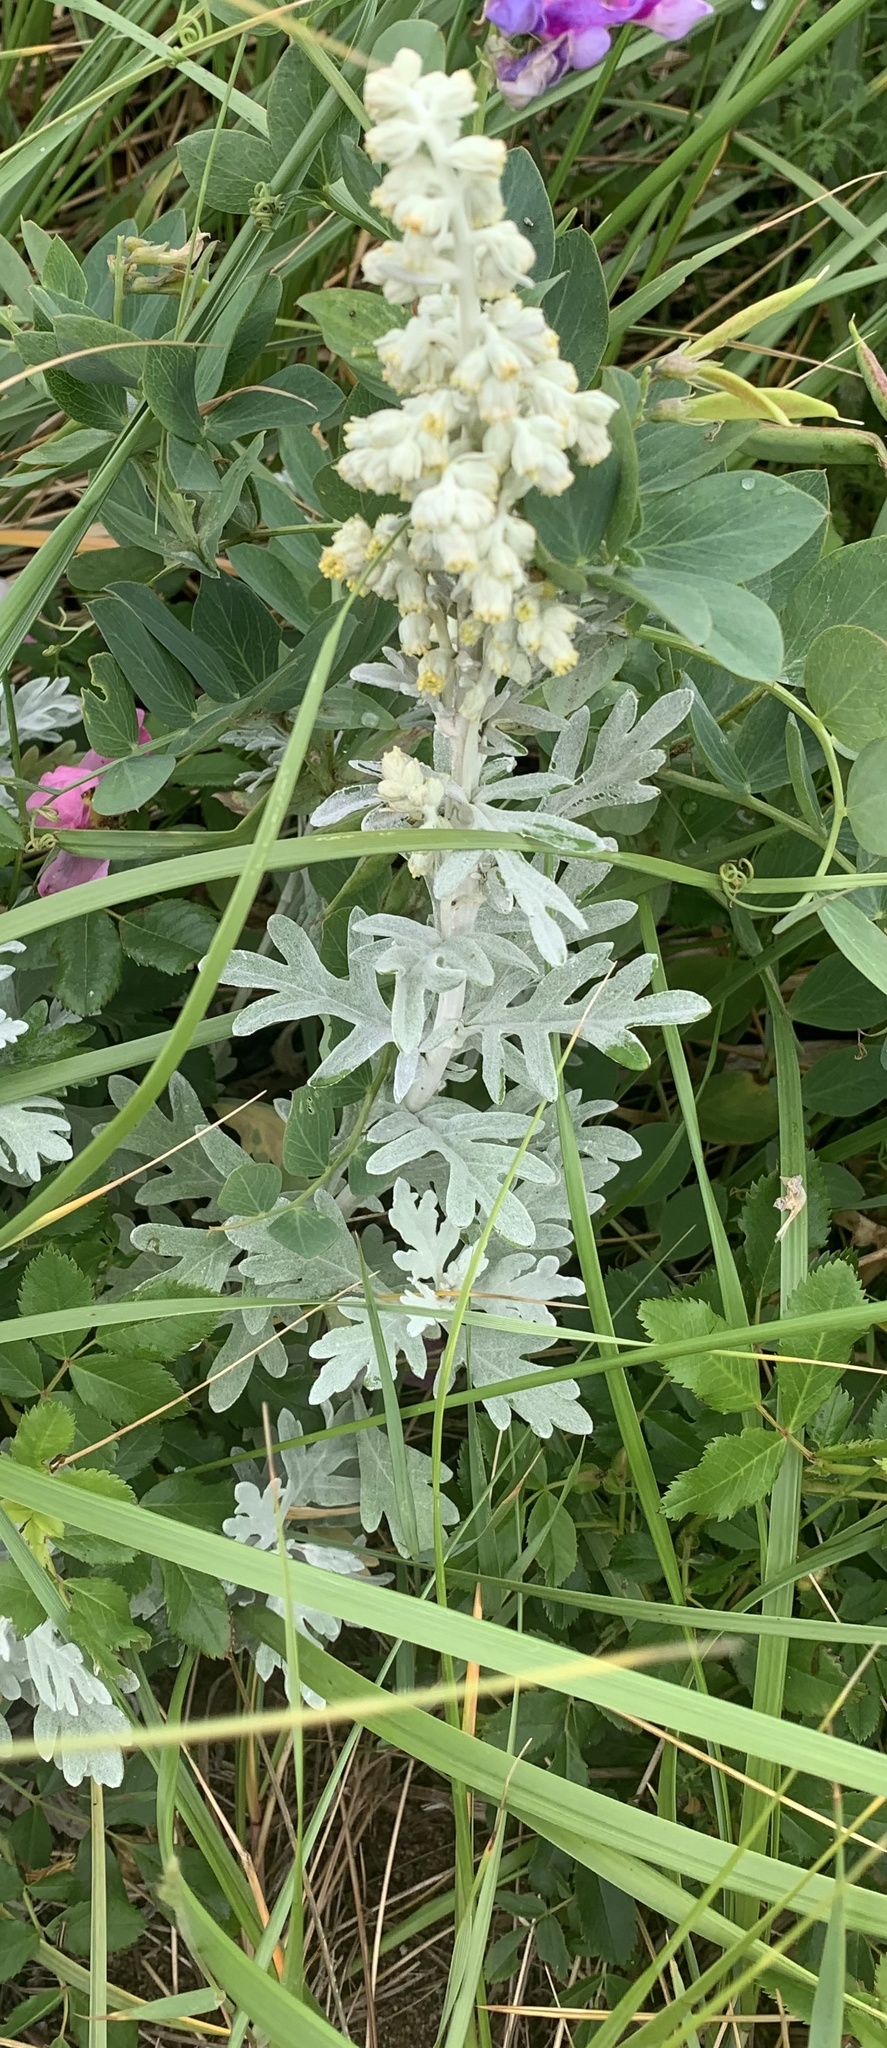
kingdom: Plantae
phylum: Tracheophyta
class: Magnoliopsida
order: Asterales
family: Asteraceae
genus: Artemisia
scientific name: Artemisia stelleriana
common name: Beach wormwood
